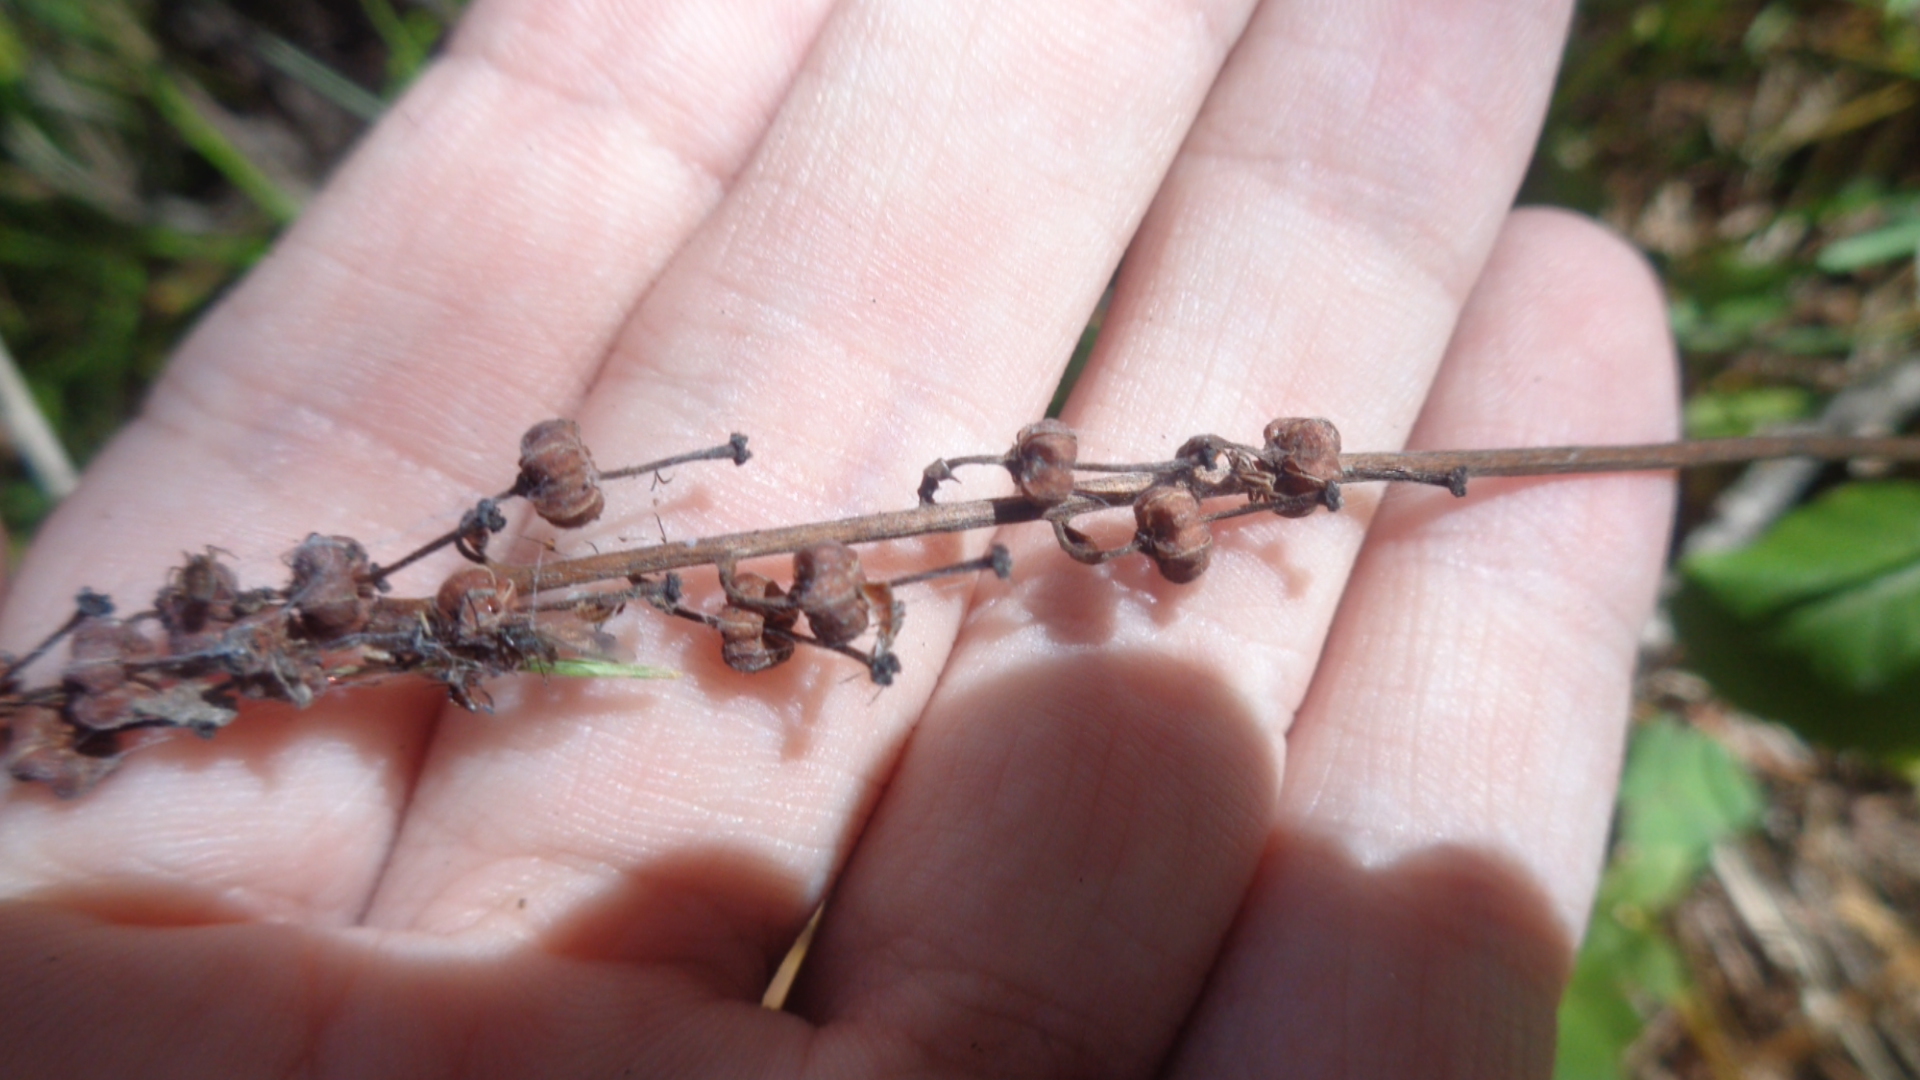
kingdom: Plantae
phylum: Tracheophyta
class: Magnoliopsida
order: Ericales
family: Ericaceae
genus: Orthilia
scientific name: Orthilia secunda
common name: One-sided orthilia
